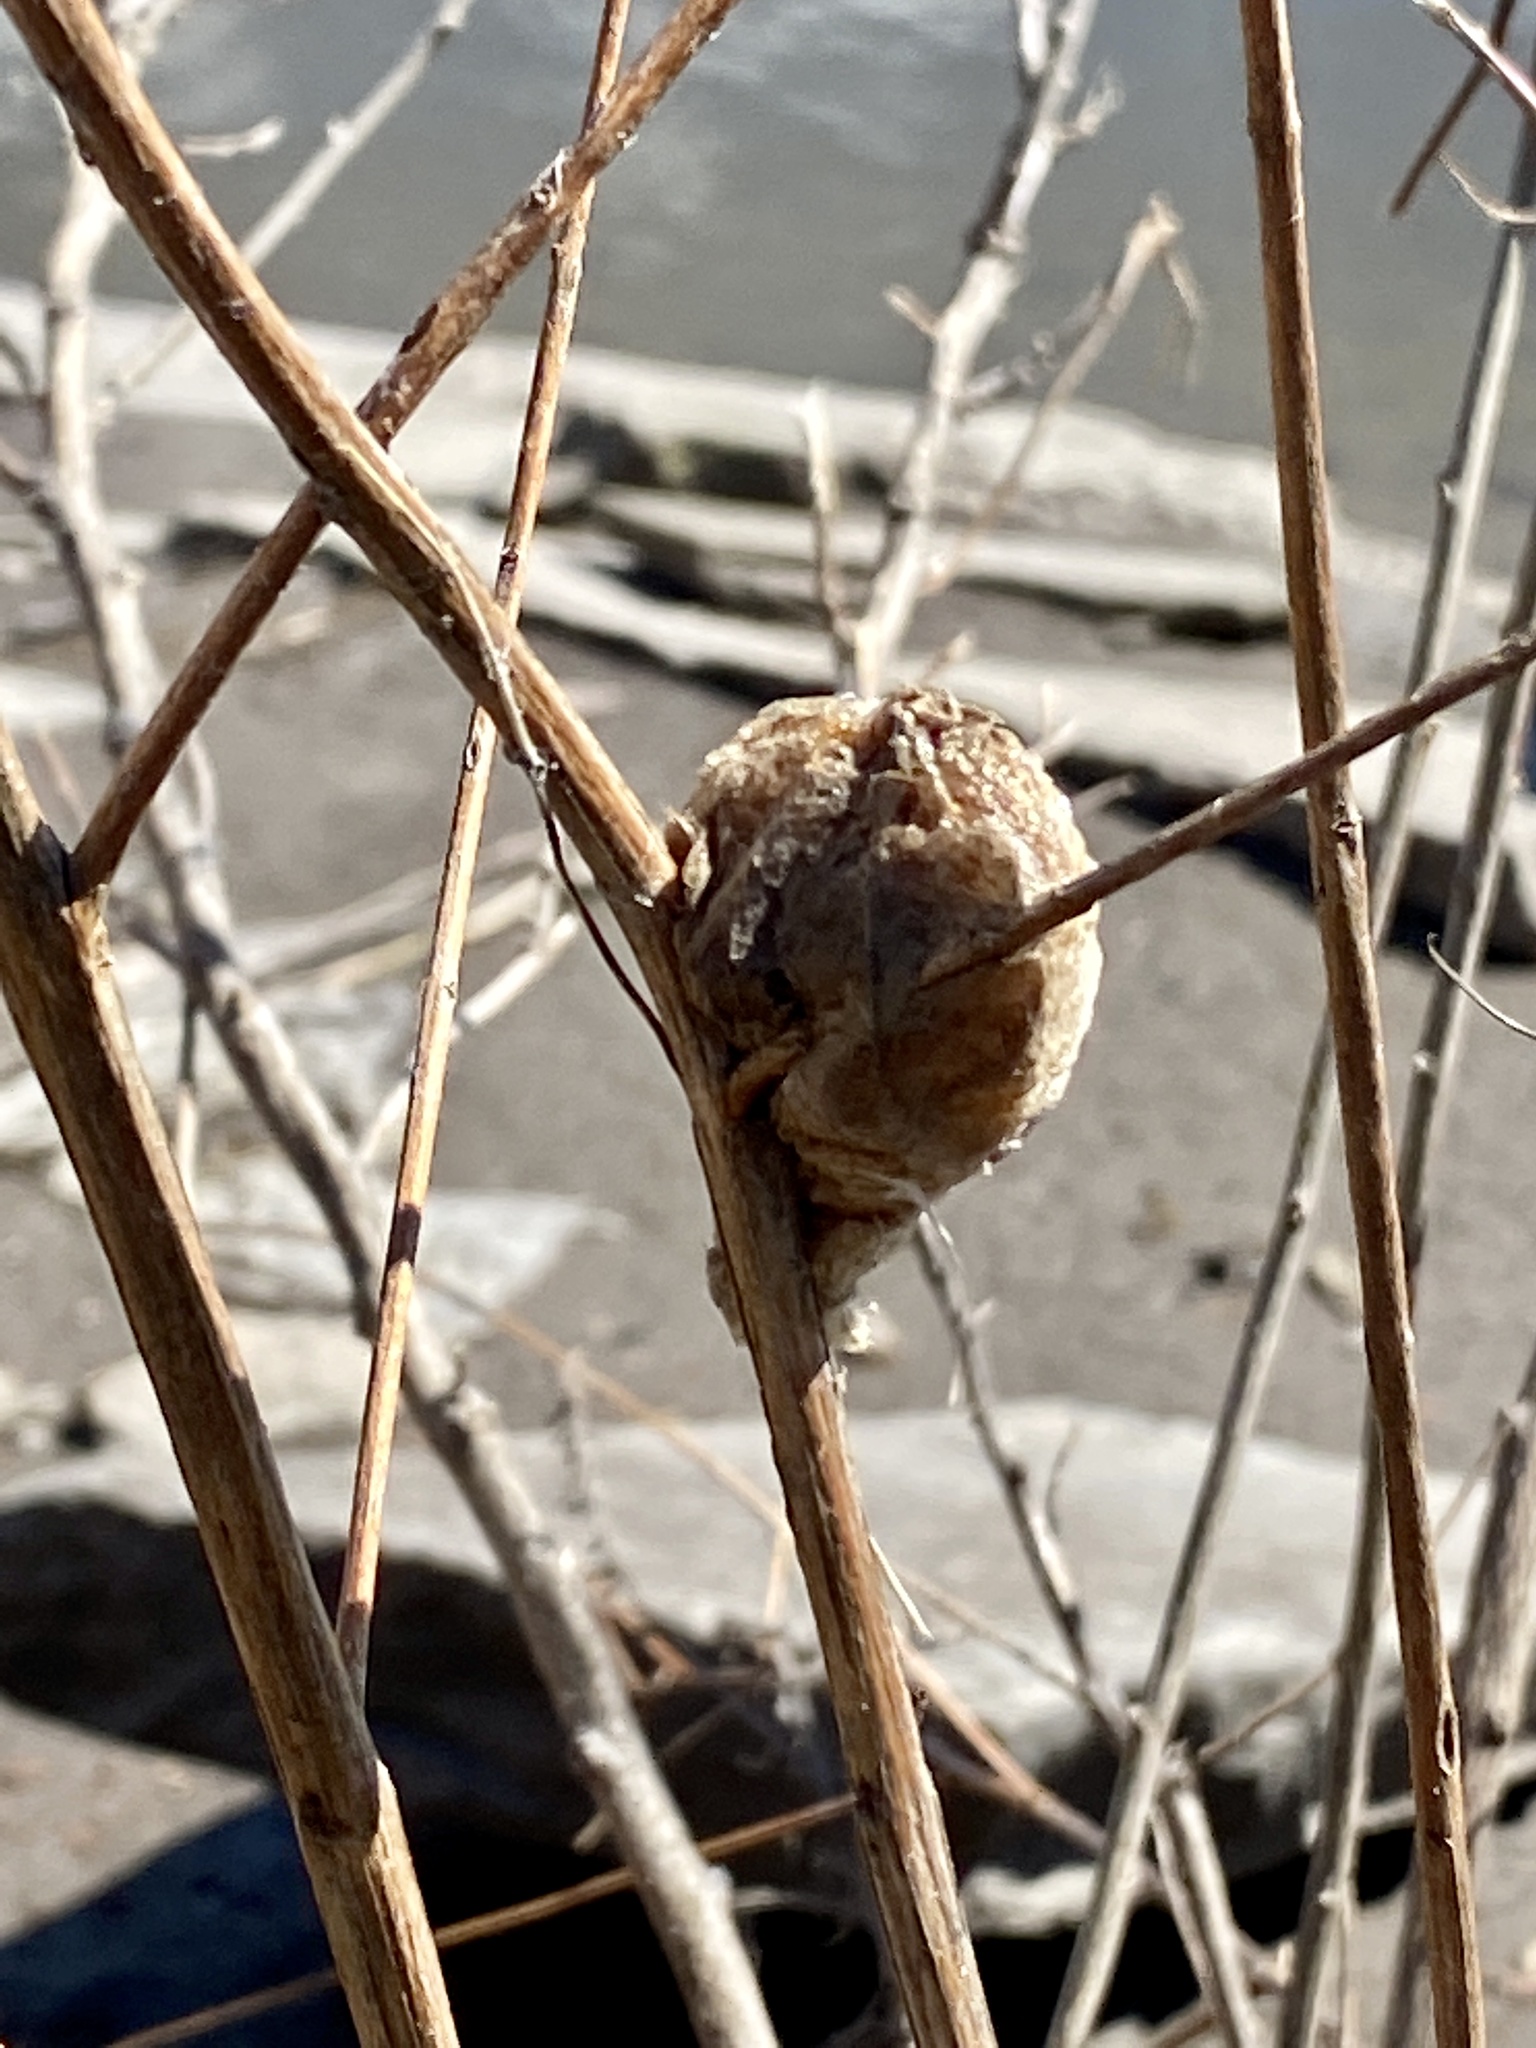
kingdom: Animalia
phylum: Arthropoda
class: Insecta
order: Mantodea
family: Mantidae
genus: Tenodera
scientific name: Tenodera sinensis
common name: Chinese mantis
